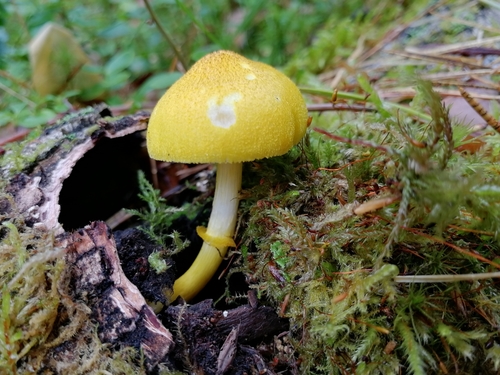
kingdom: Fungi
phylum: Basidiomycota
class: Agaricomycetes
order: Agaricales
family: Pluteaceae
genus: Pluteus
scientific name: Pluteus fenzlii
